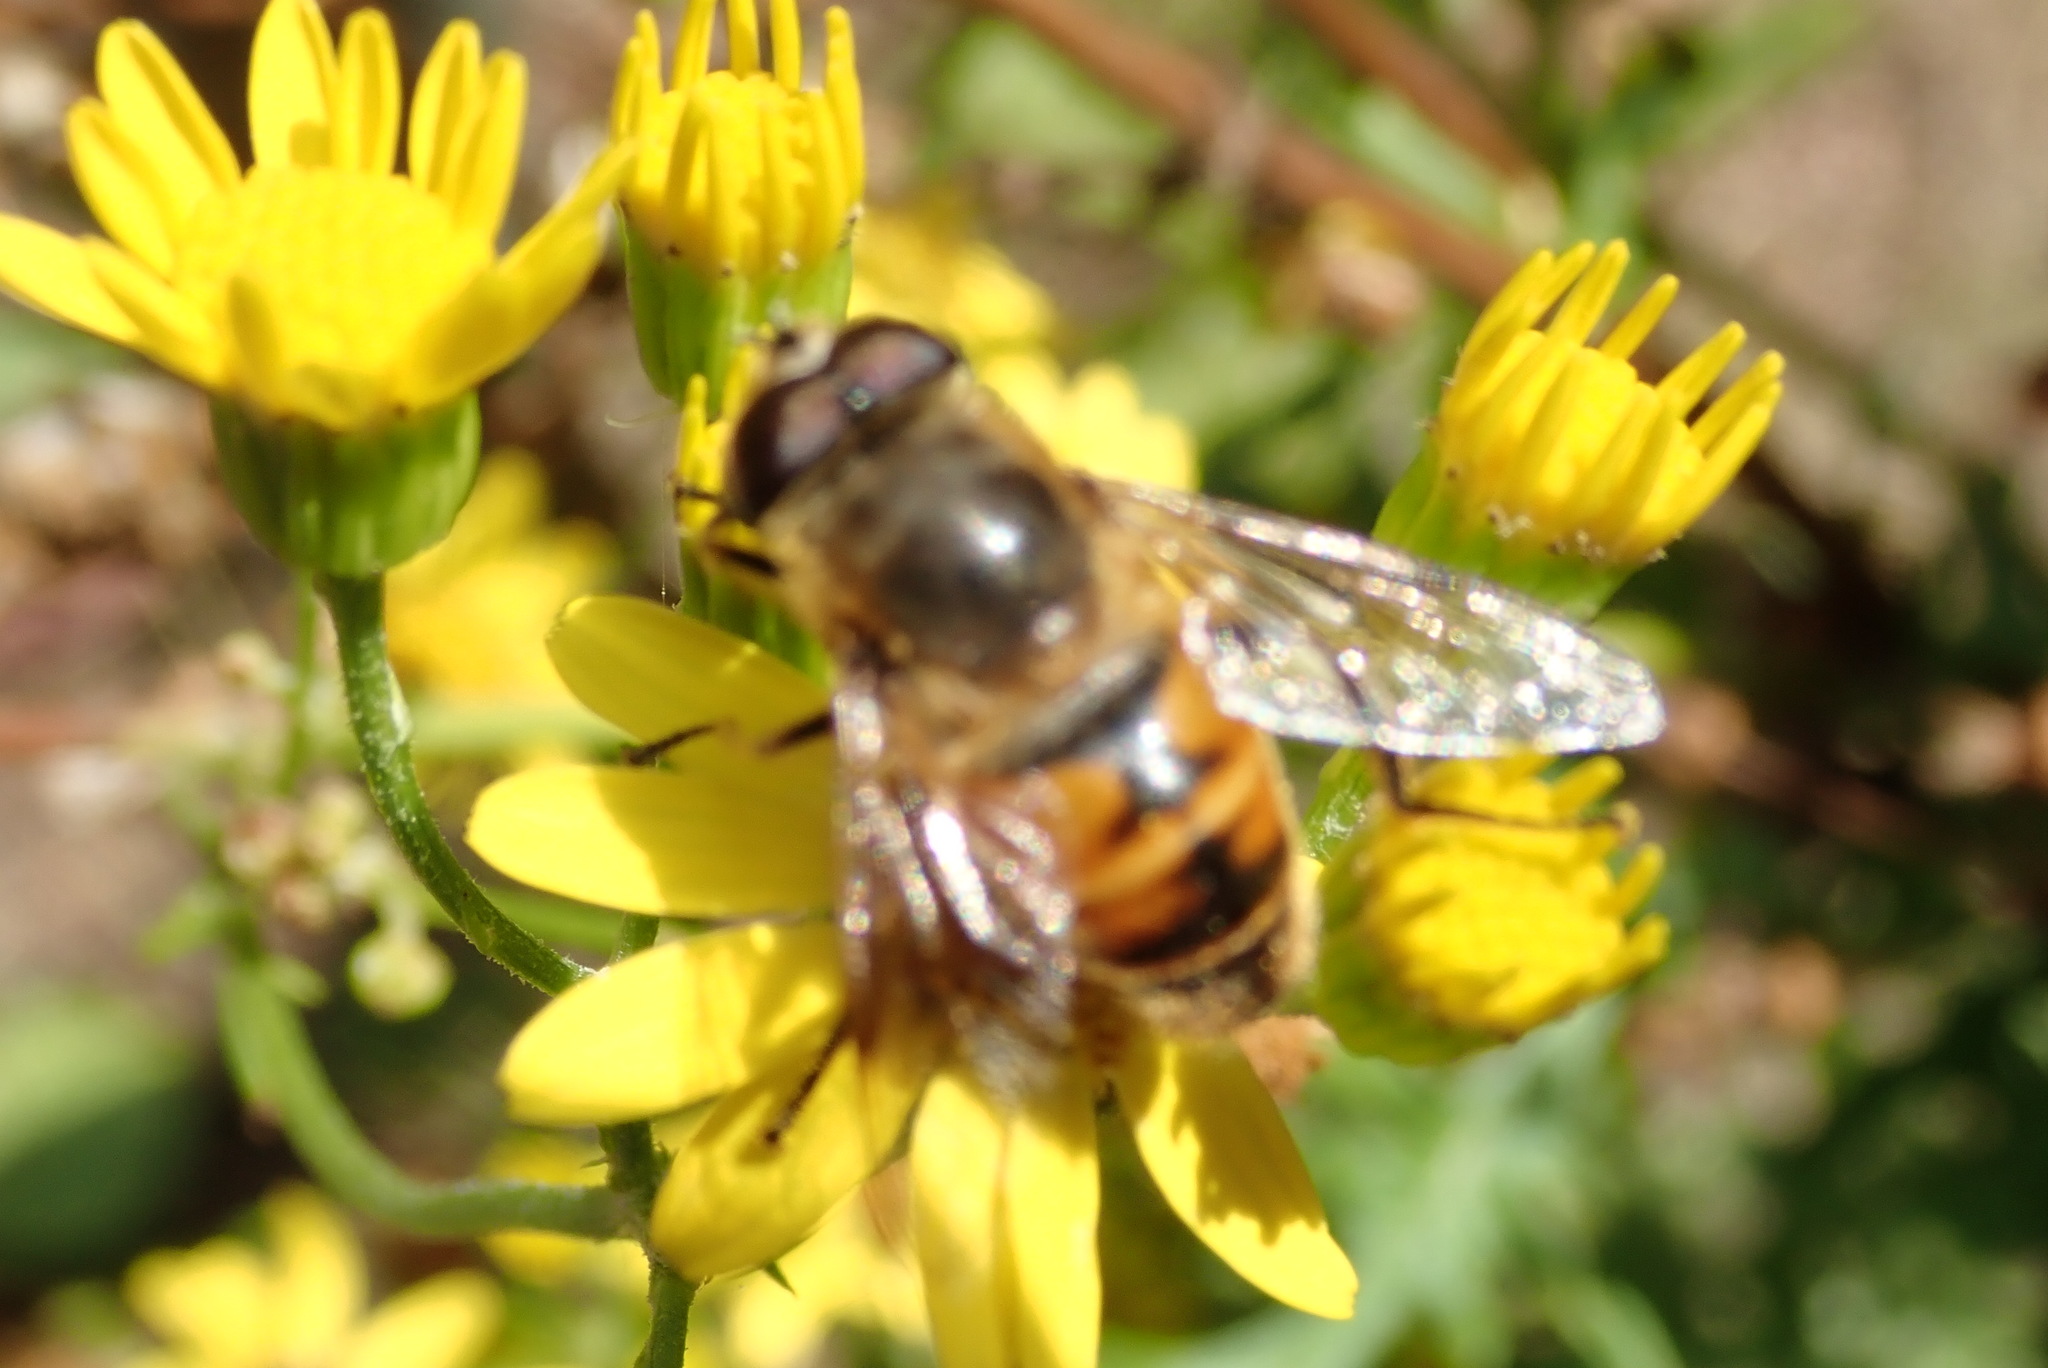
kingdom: Animalia
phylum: Arthropoda
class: Insecta
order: Diptera
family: Syrphidae
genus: Eristalis
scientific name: Eristalis tenax
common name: Drone fly
